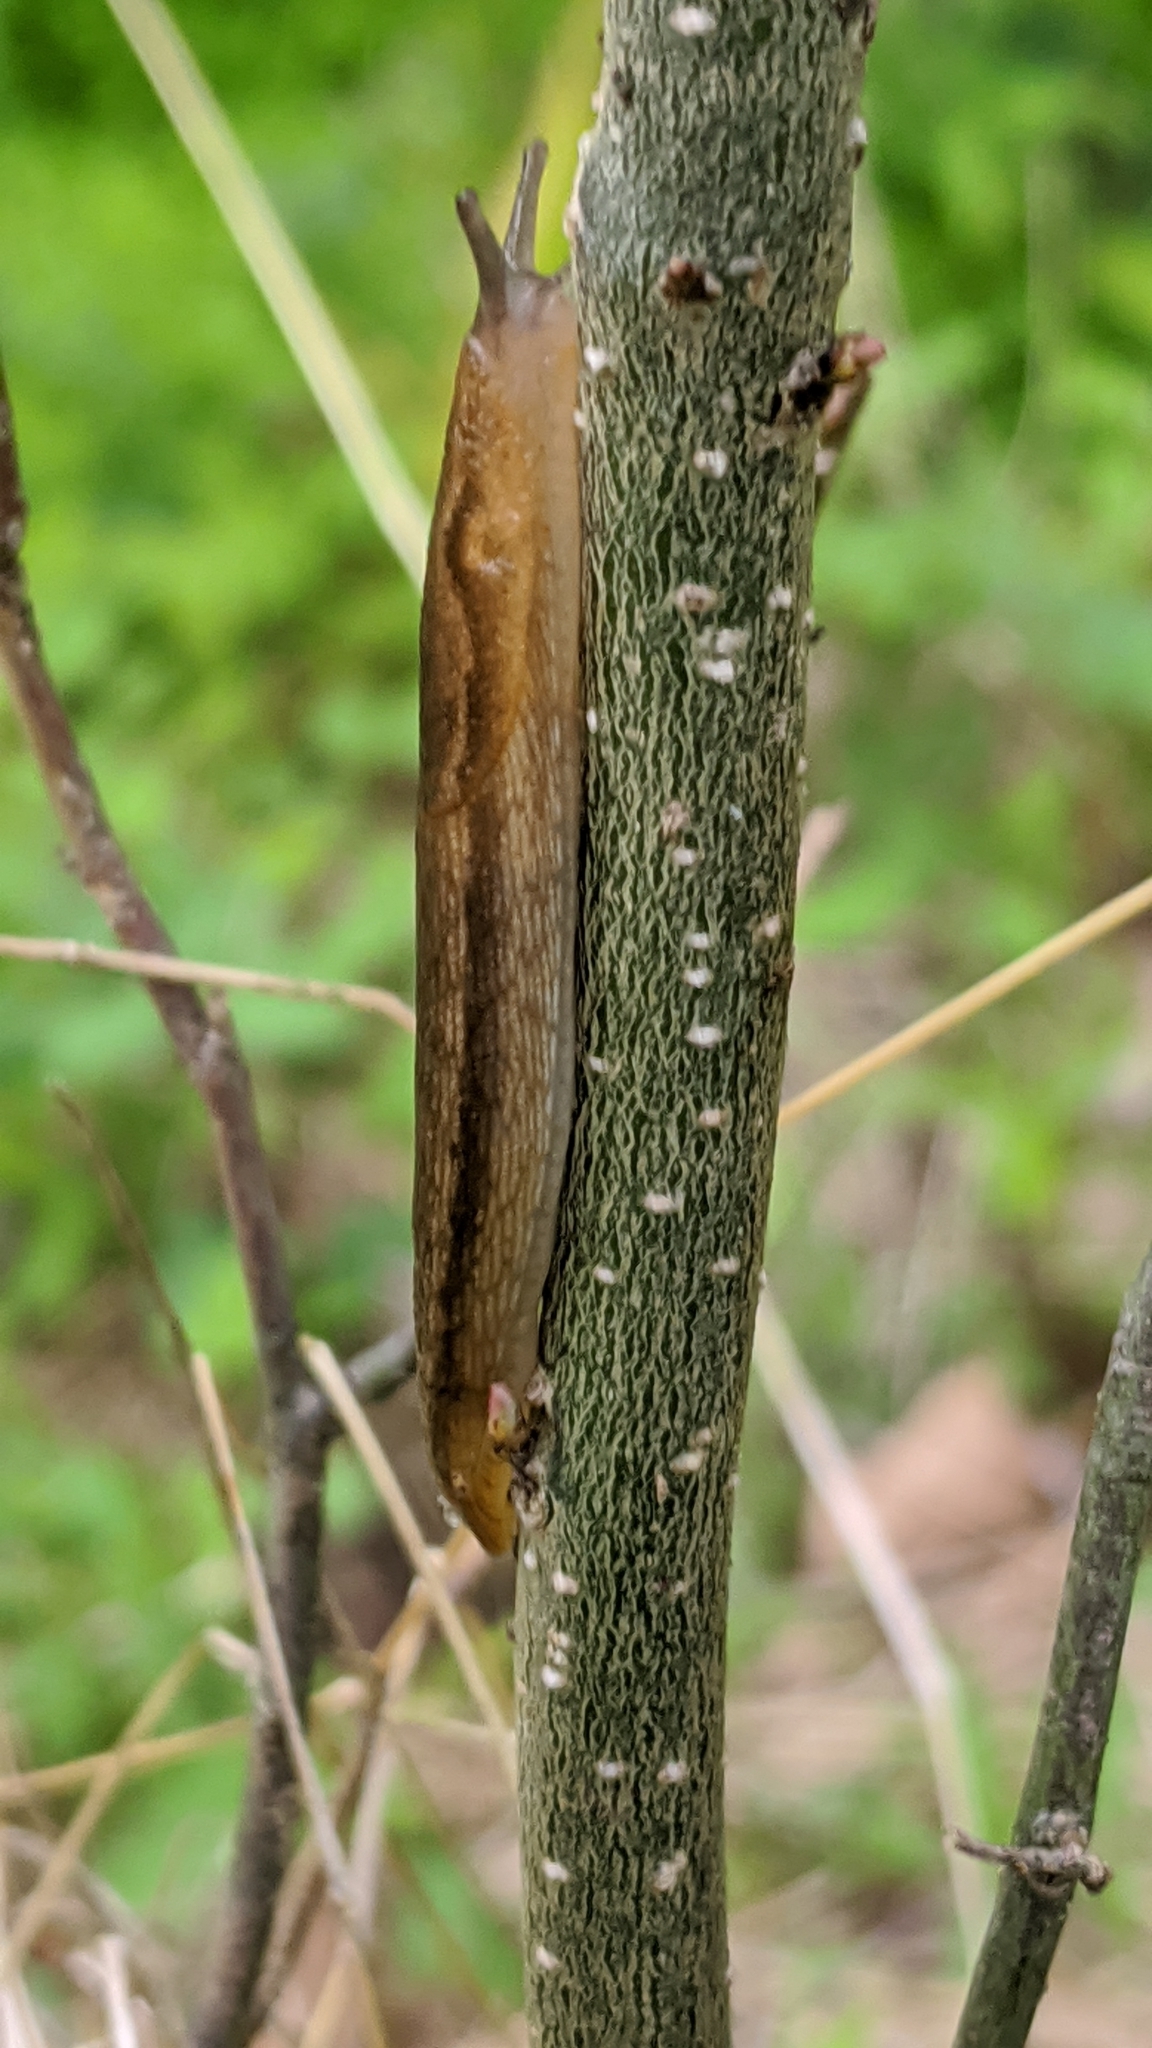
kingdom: Animalia
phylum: Mollusca
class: Gastropoda
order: Stylommatophora
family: Arionidae
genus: Mesarion
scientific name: Mesarion
